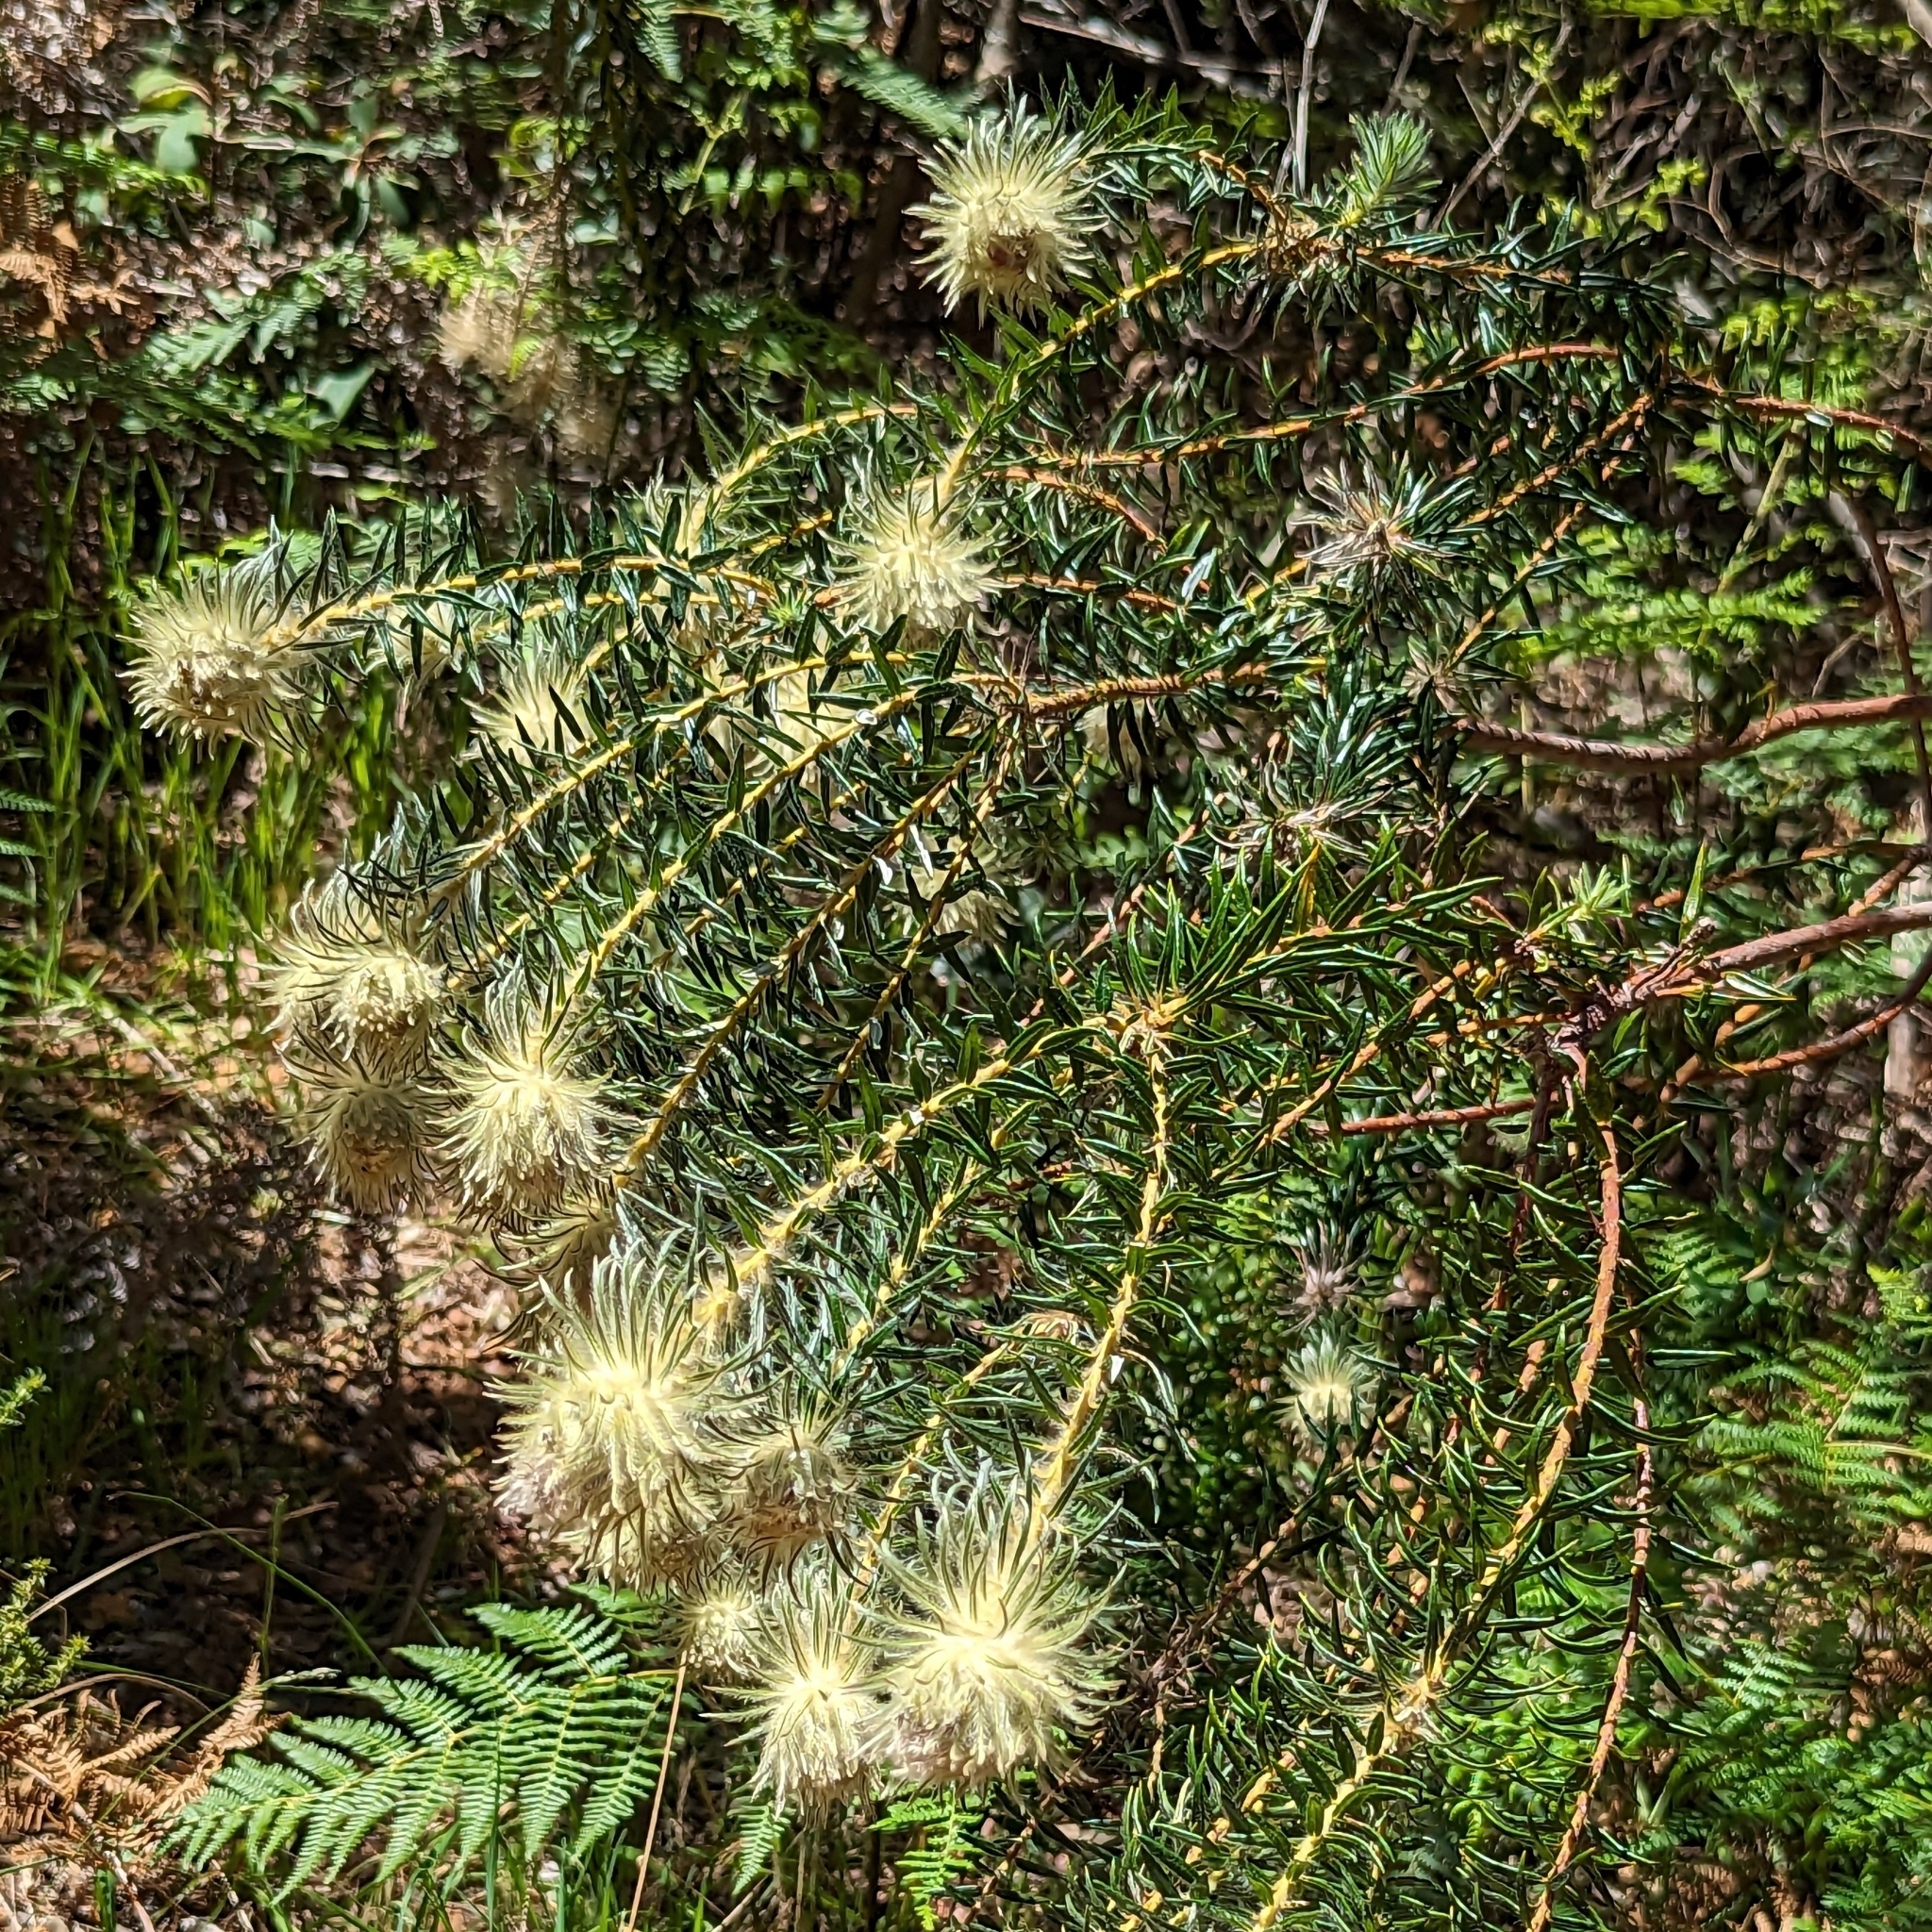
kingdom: Plantae
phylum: Tracheophyta
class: Magnoliopsida
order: Rosales
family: Rhamnaceae
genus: Phylica
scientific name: Phylica pubescens
